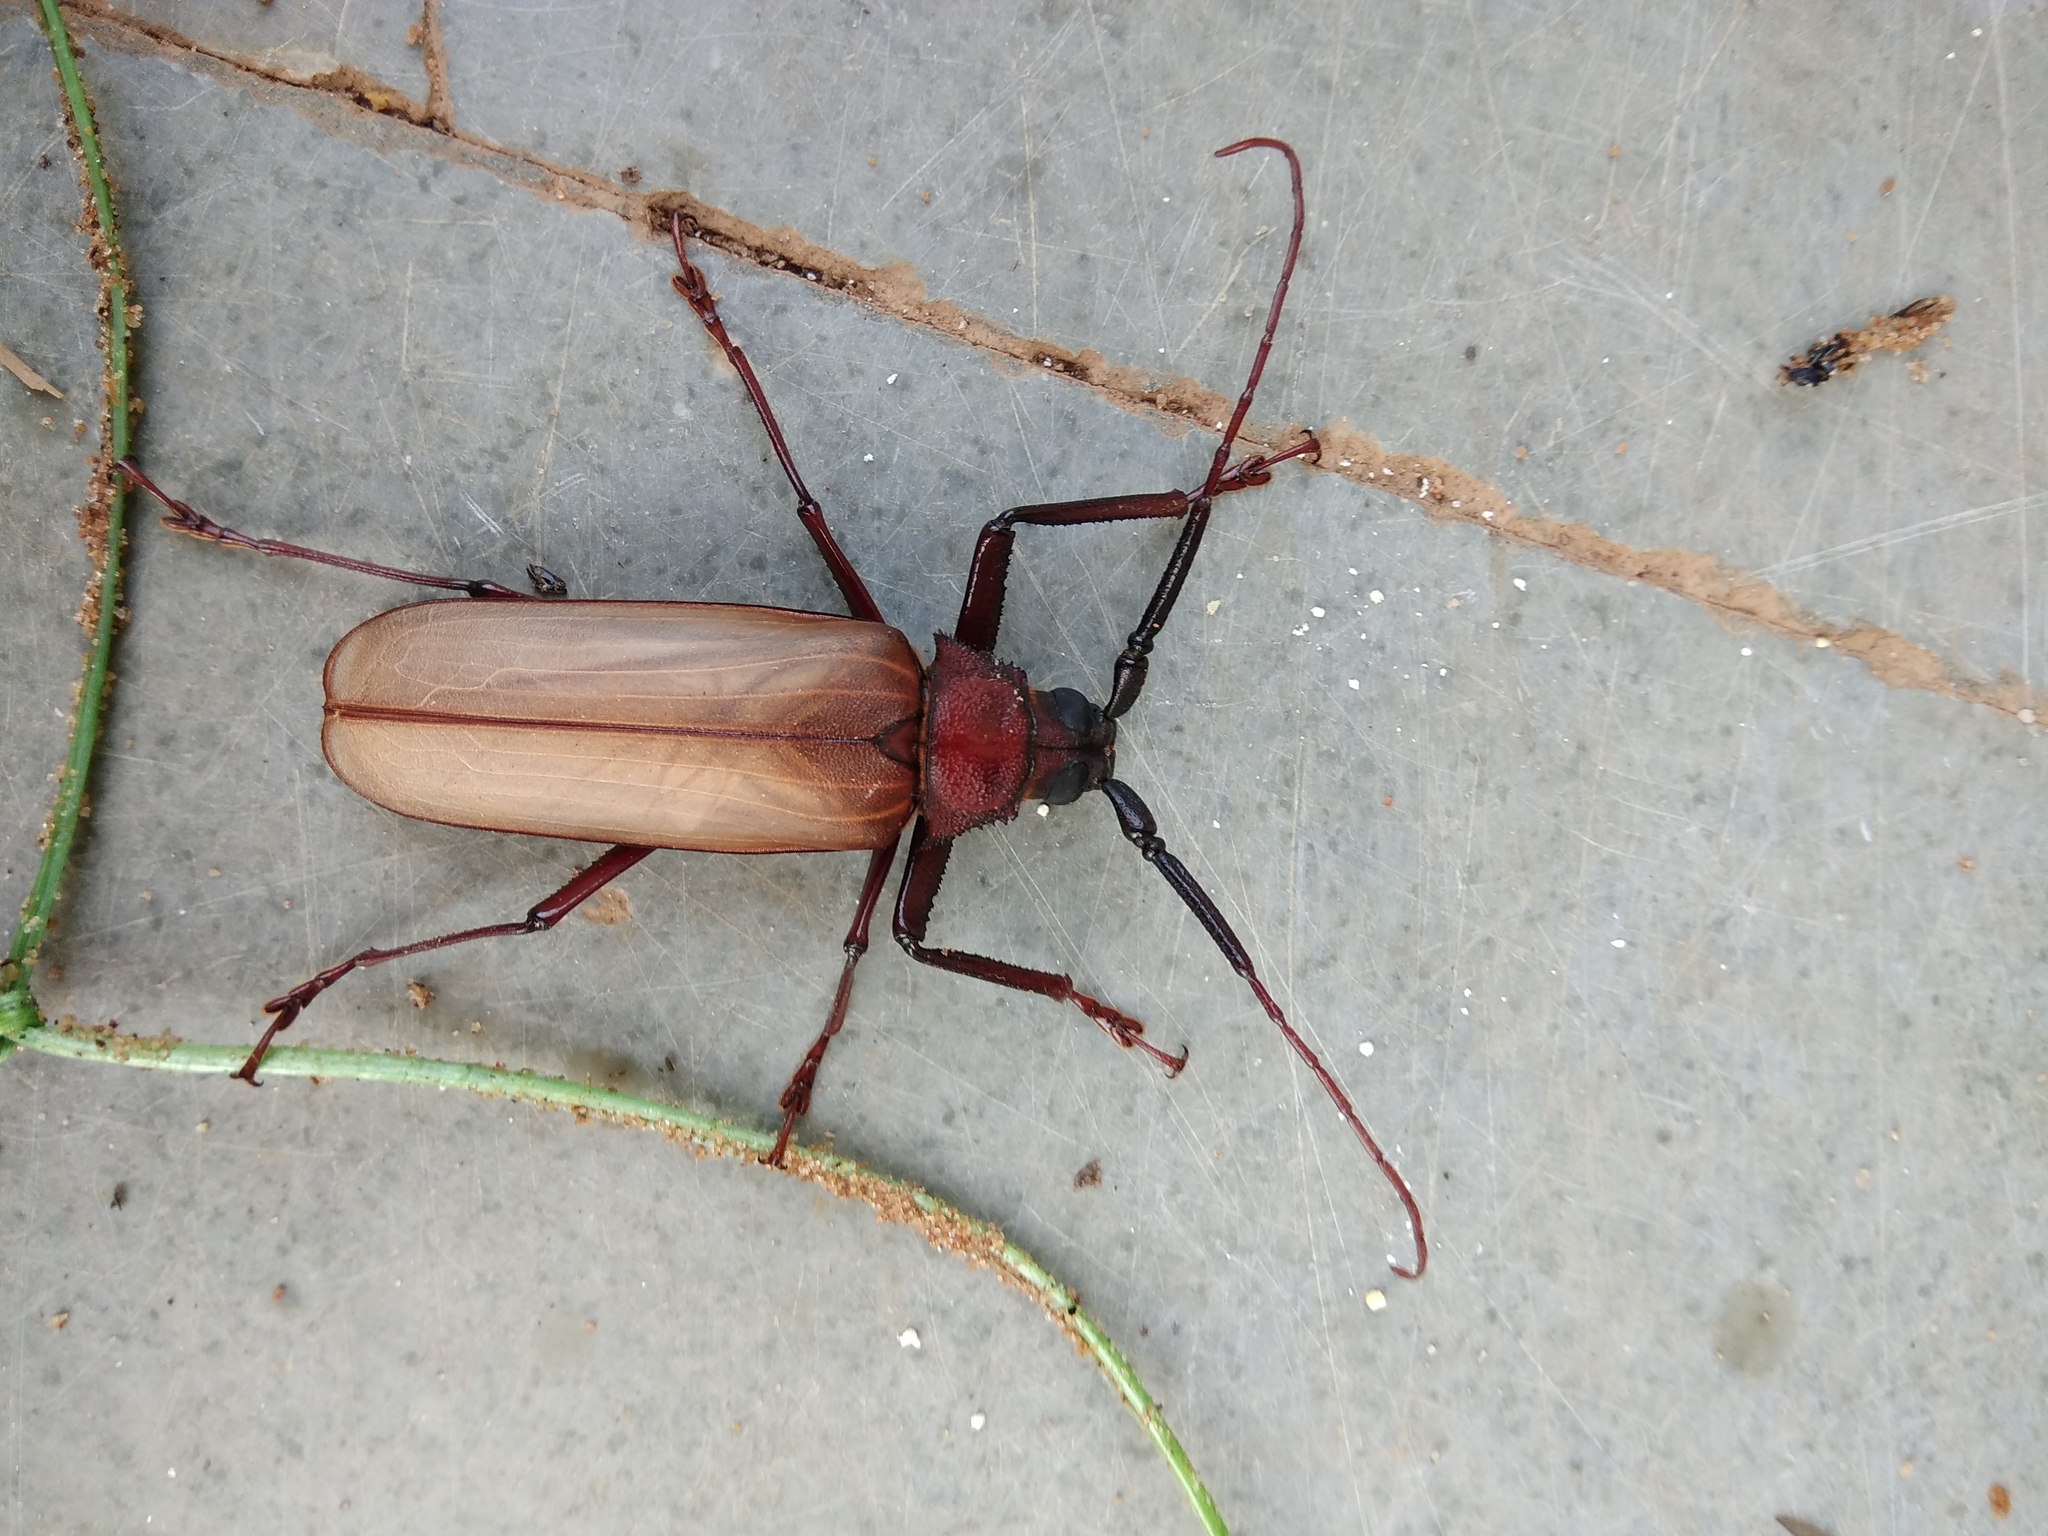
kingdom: Animalia
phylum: Arthropoda
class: Insecta
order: Coleoptera
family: Cerambycidae
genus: Bandar
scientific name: Bandar pascoei
